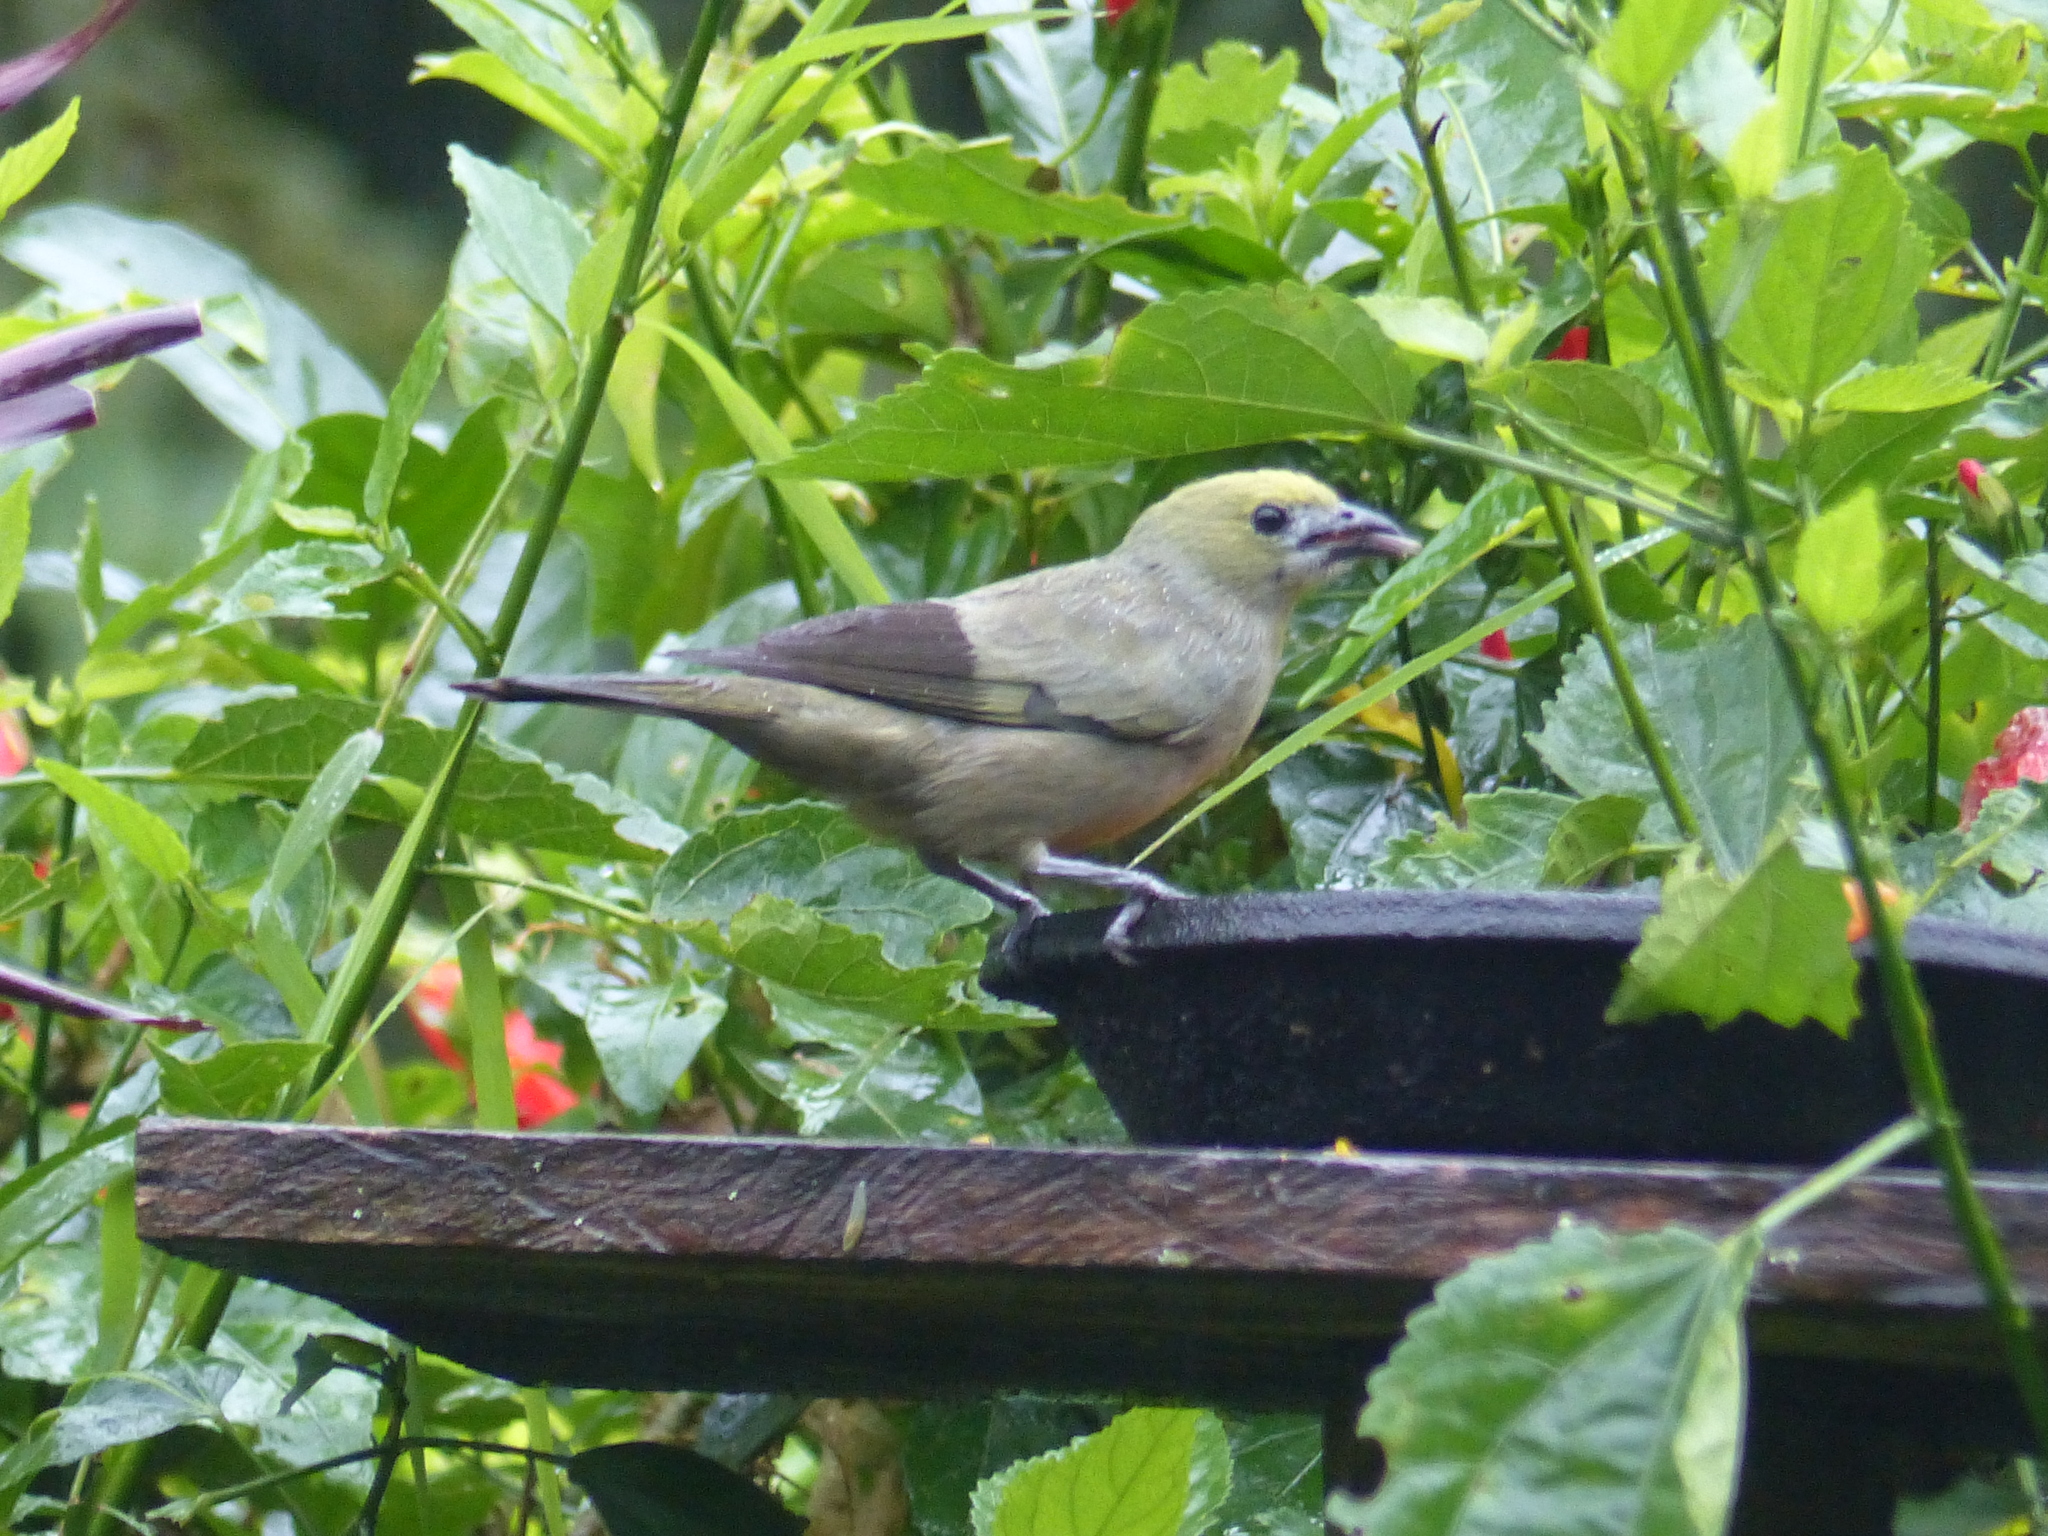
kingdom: Animalia
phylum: Chordata
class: Aves
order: Passeriformes
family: Thraupidae
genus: Thraupis
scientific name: Thraupis palmarum
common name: Palm tanager
